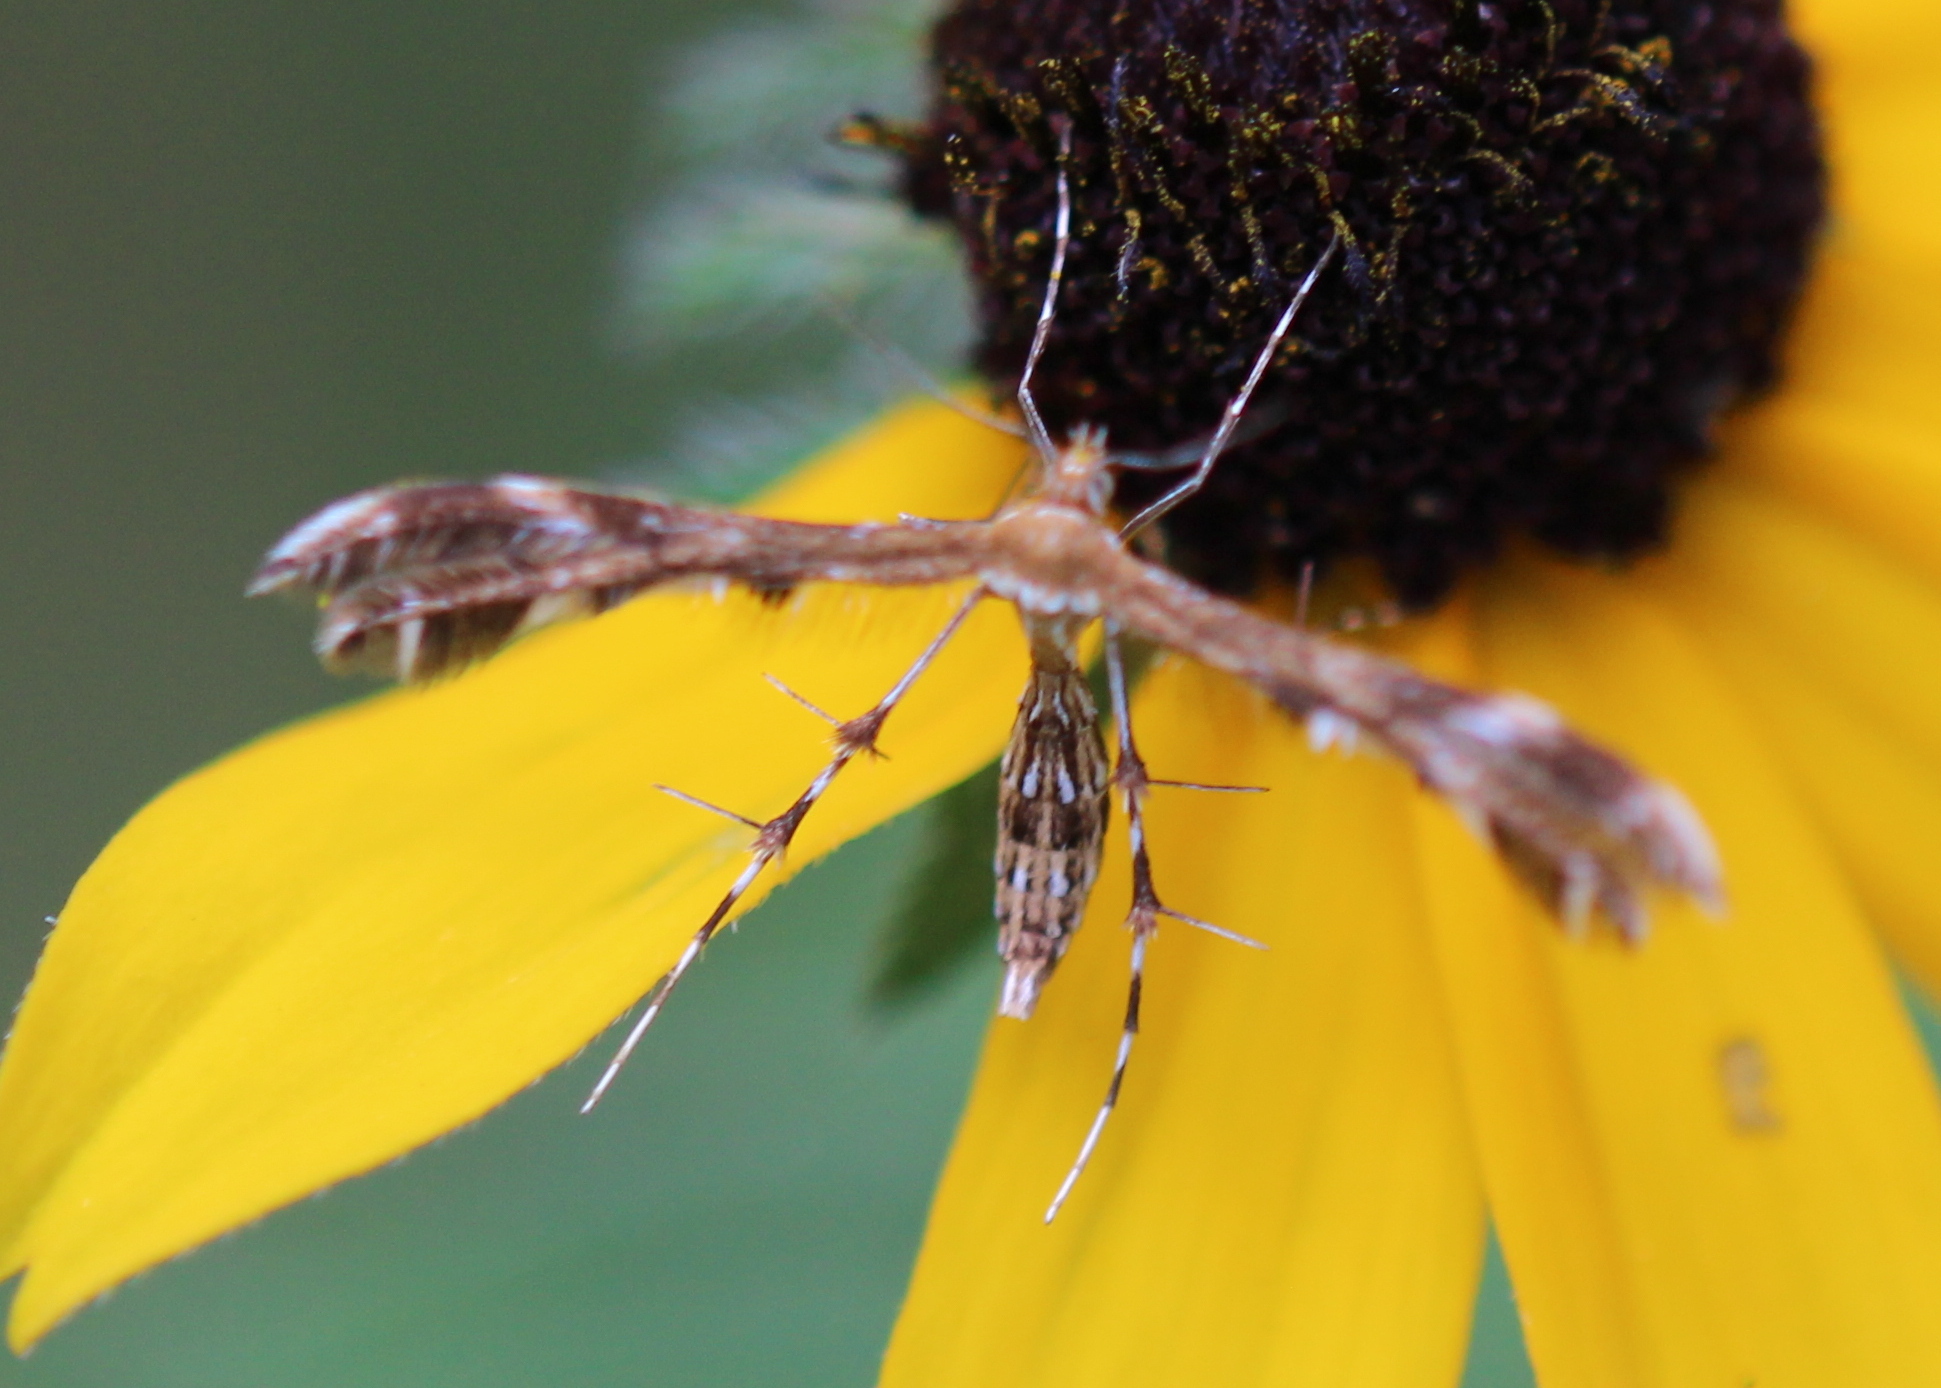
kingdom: Animalia
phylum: Arthropoda
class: Insecta
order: Lepidoptera
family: Pterophoridae
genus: Dejongia
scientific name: Dejongia lobidactylus
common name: Lobed plume moth
